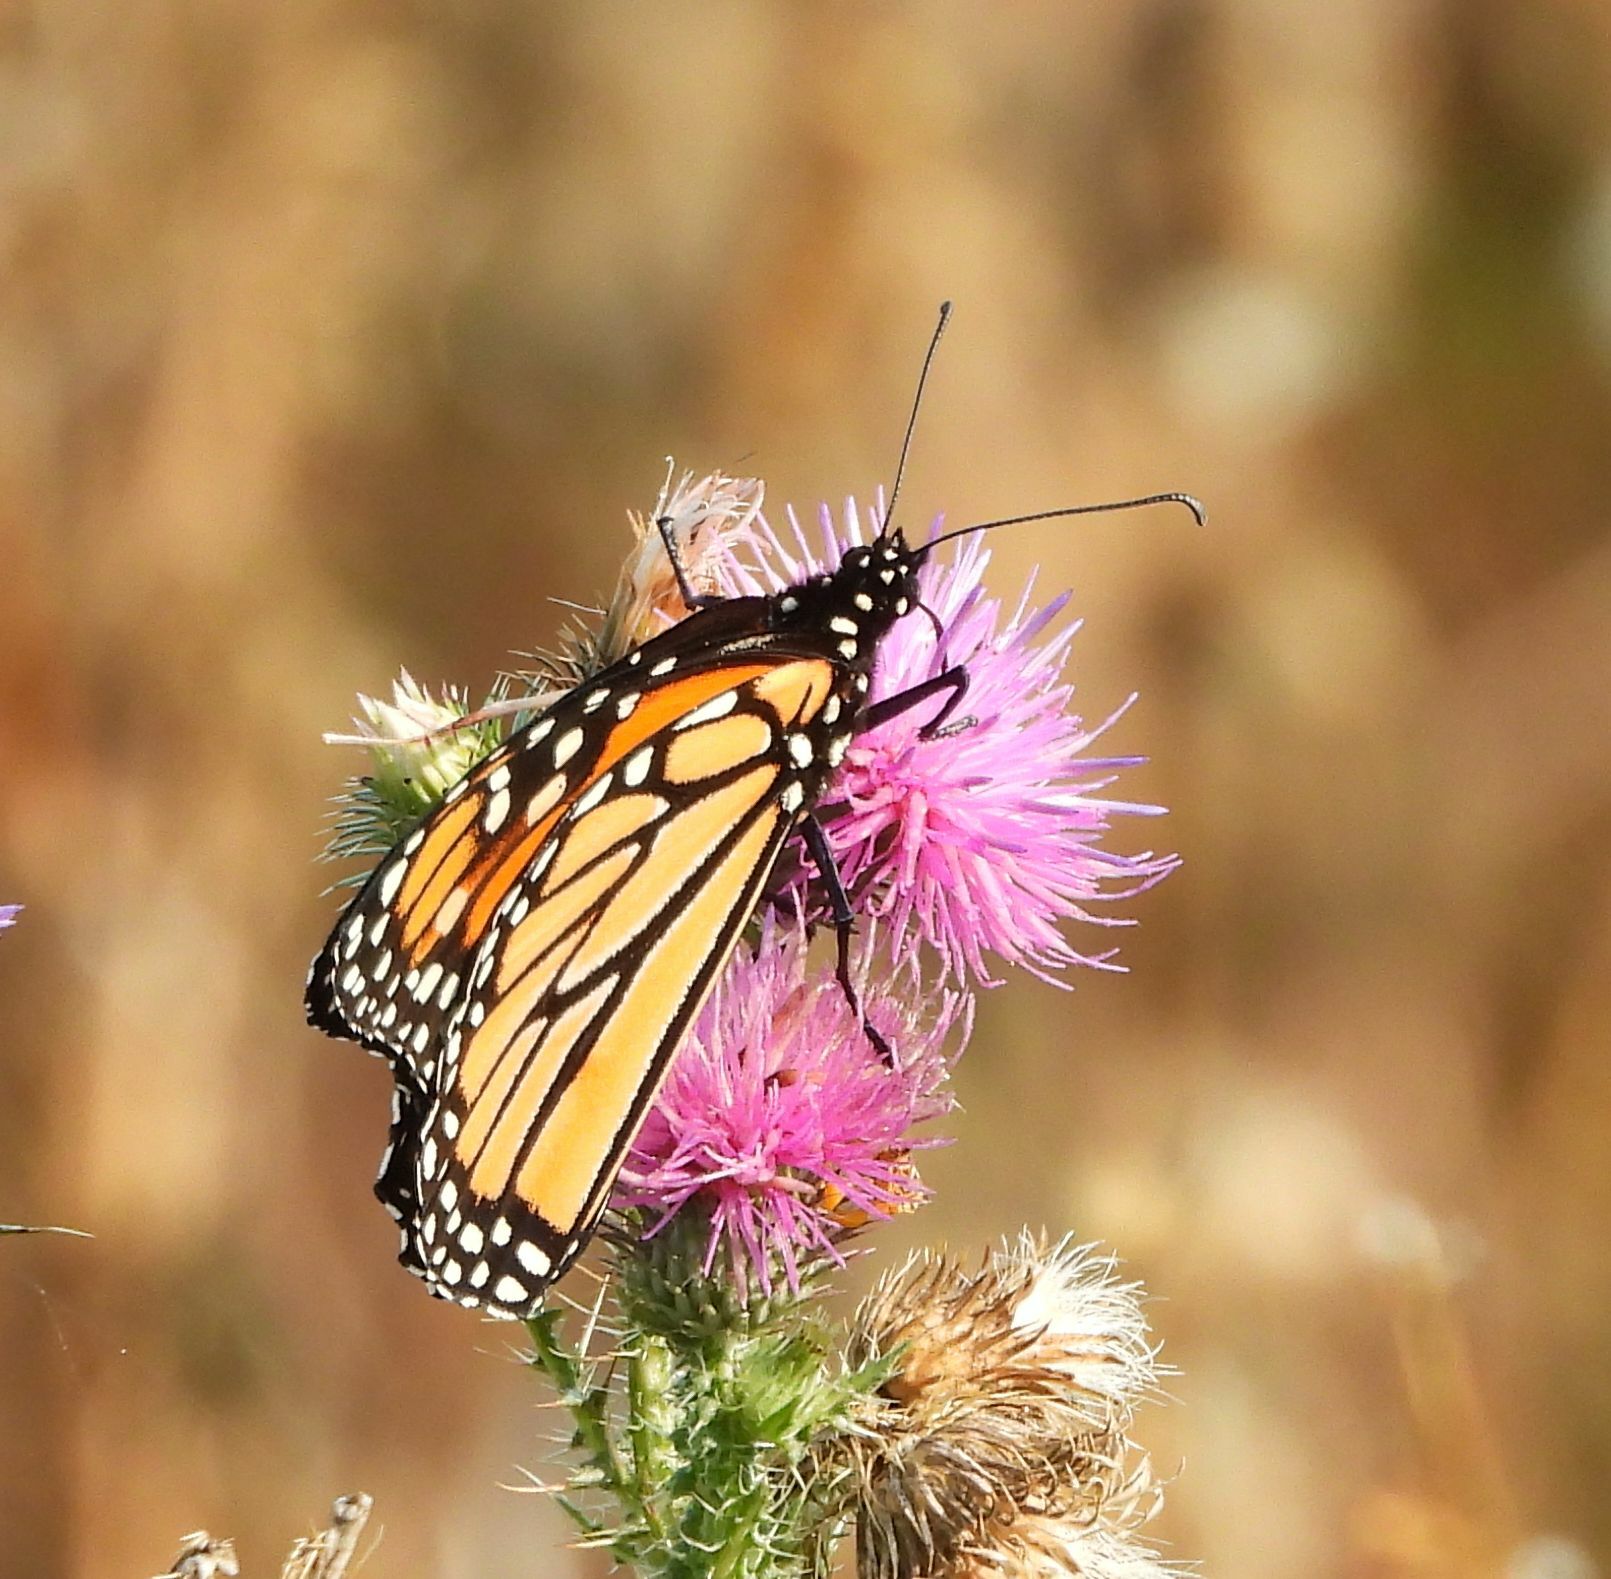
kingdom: Animalia
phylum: Arthropoda
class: Insecta
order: Lepidoptera
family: Nymphalidae
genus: Danaus
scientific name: Danaus plexippus
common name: Monarch
